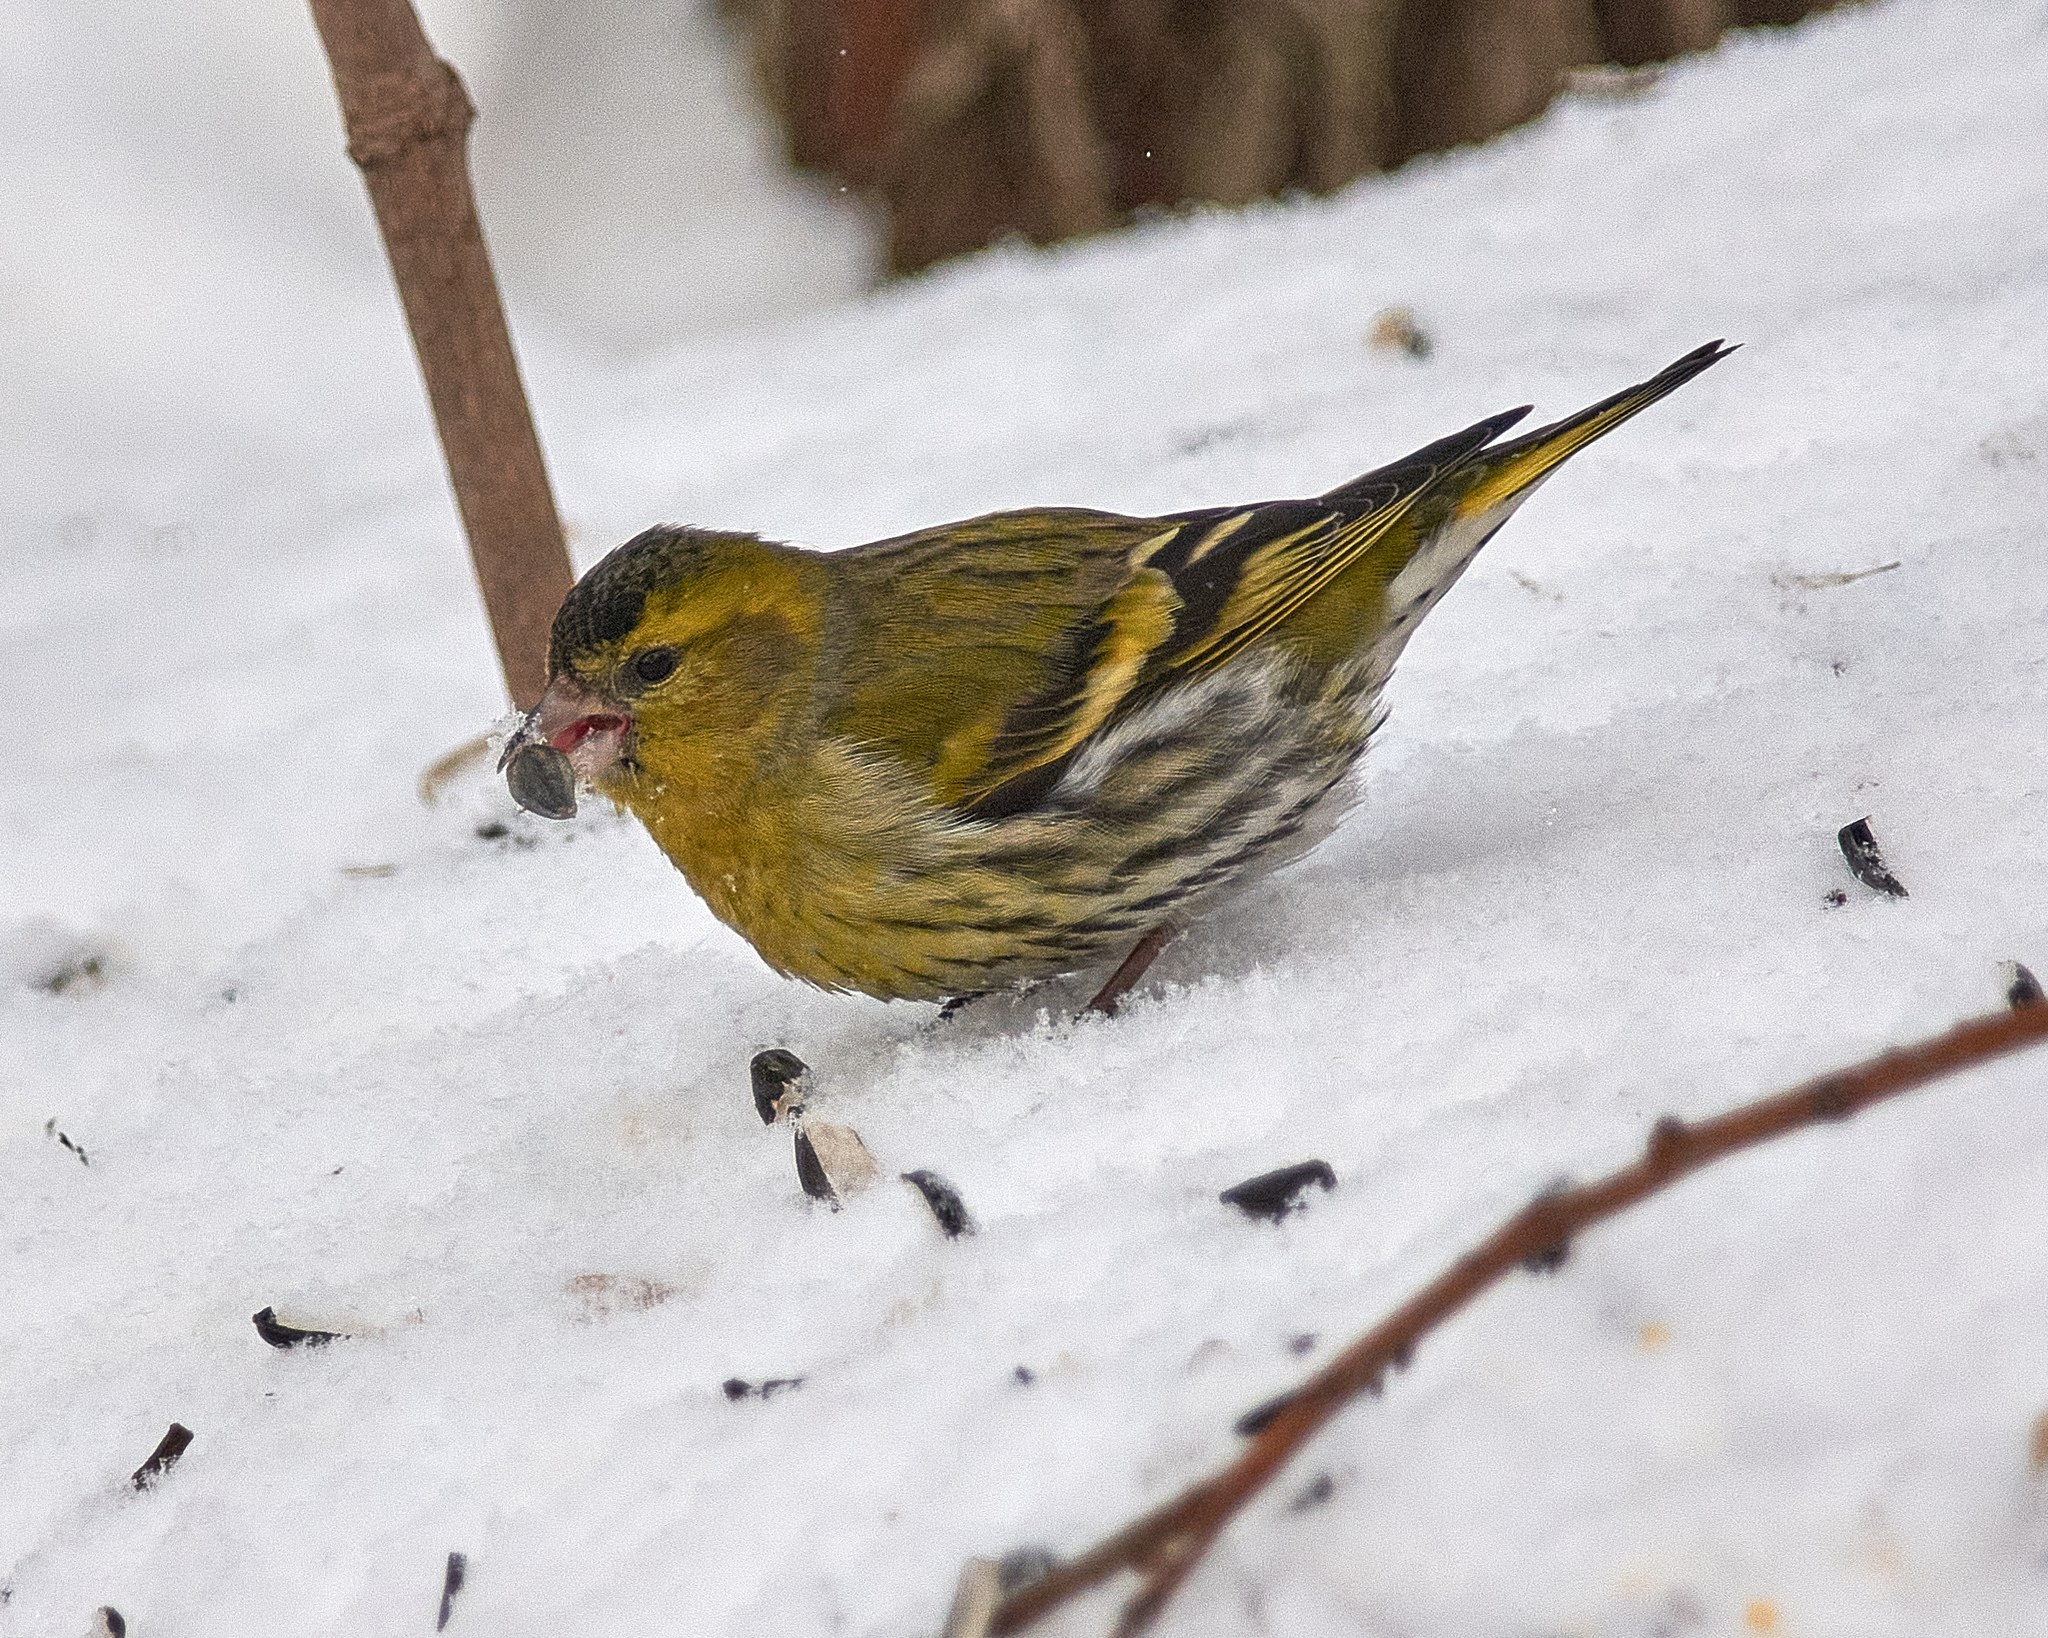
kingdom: Animalia
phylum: Chordata
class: Aves
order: Passeriformes
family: Fringillidae
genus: Spinus
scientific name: Spinus spinus
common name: Eurasian siskin
